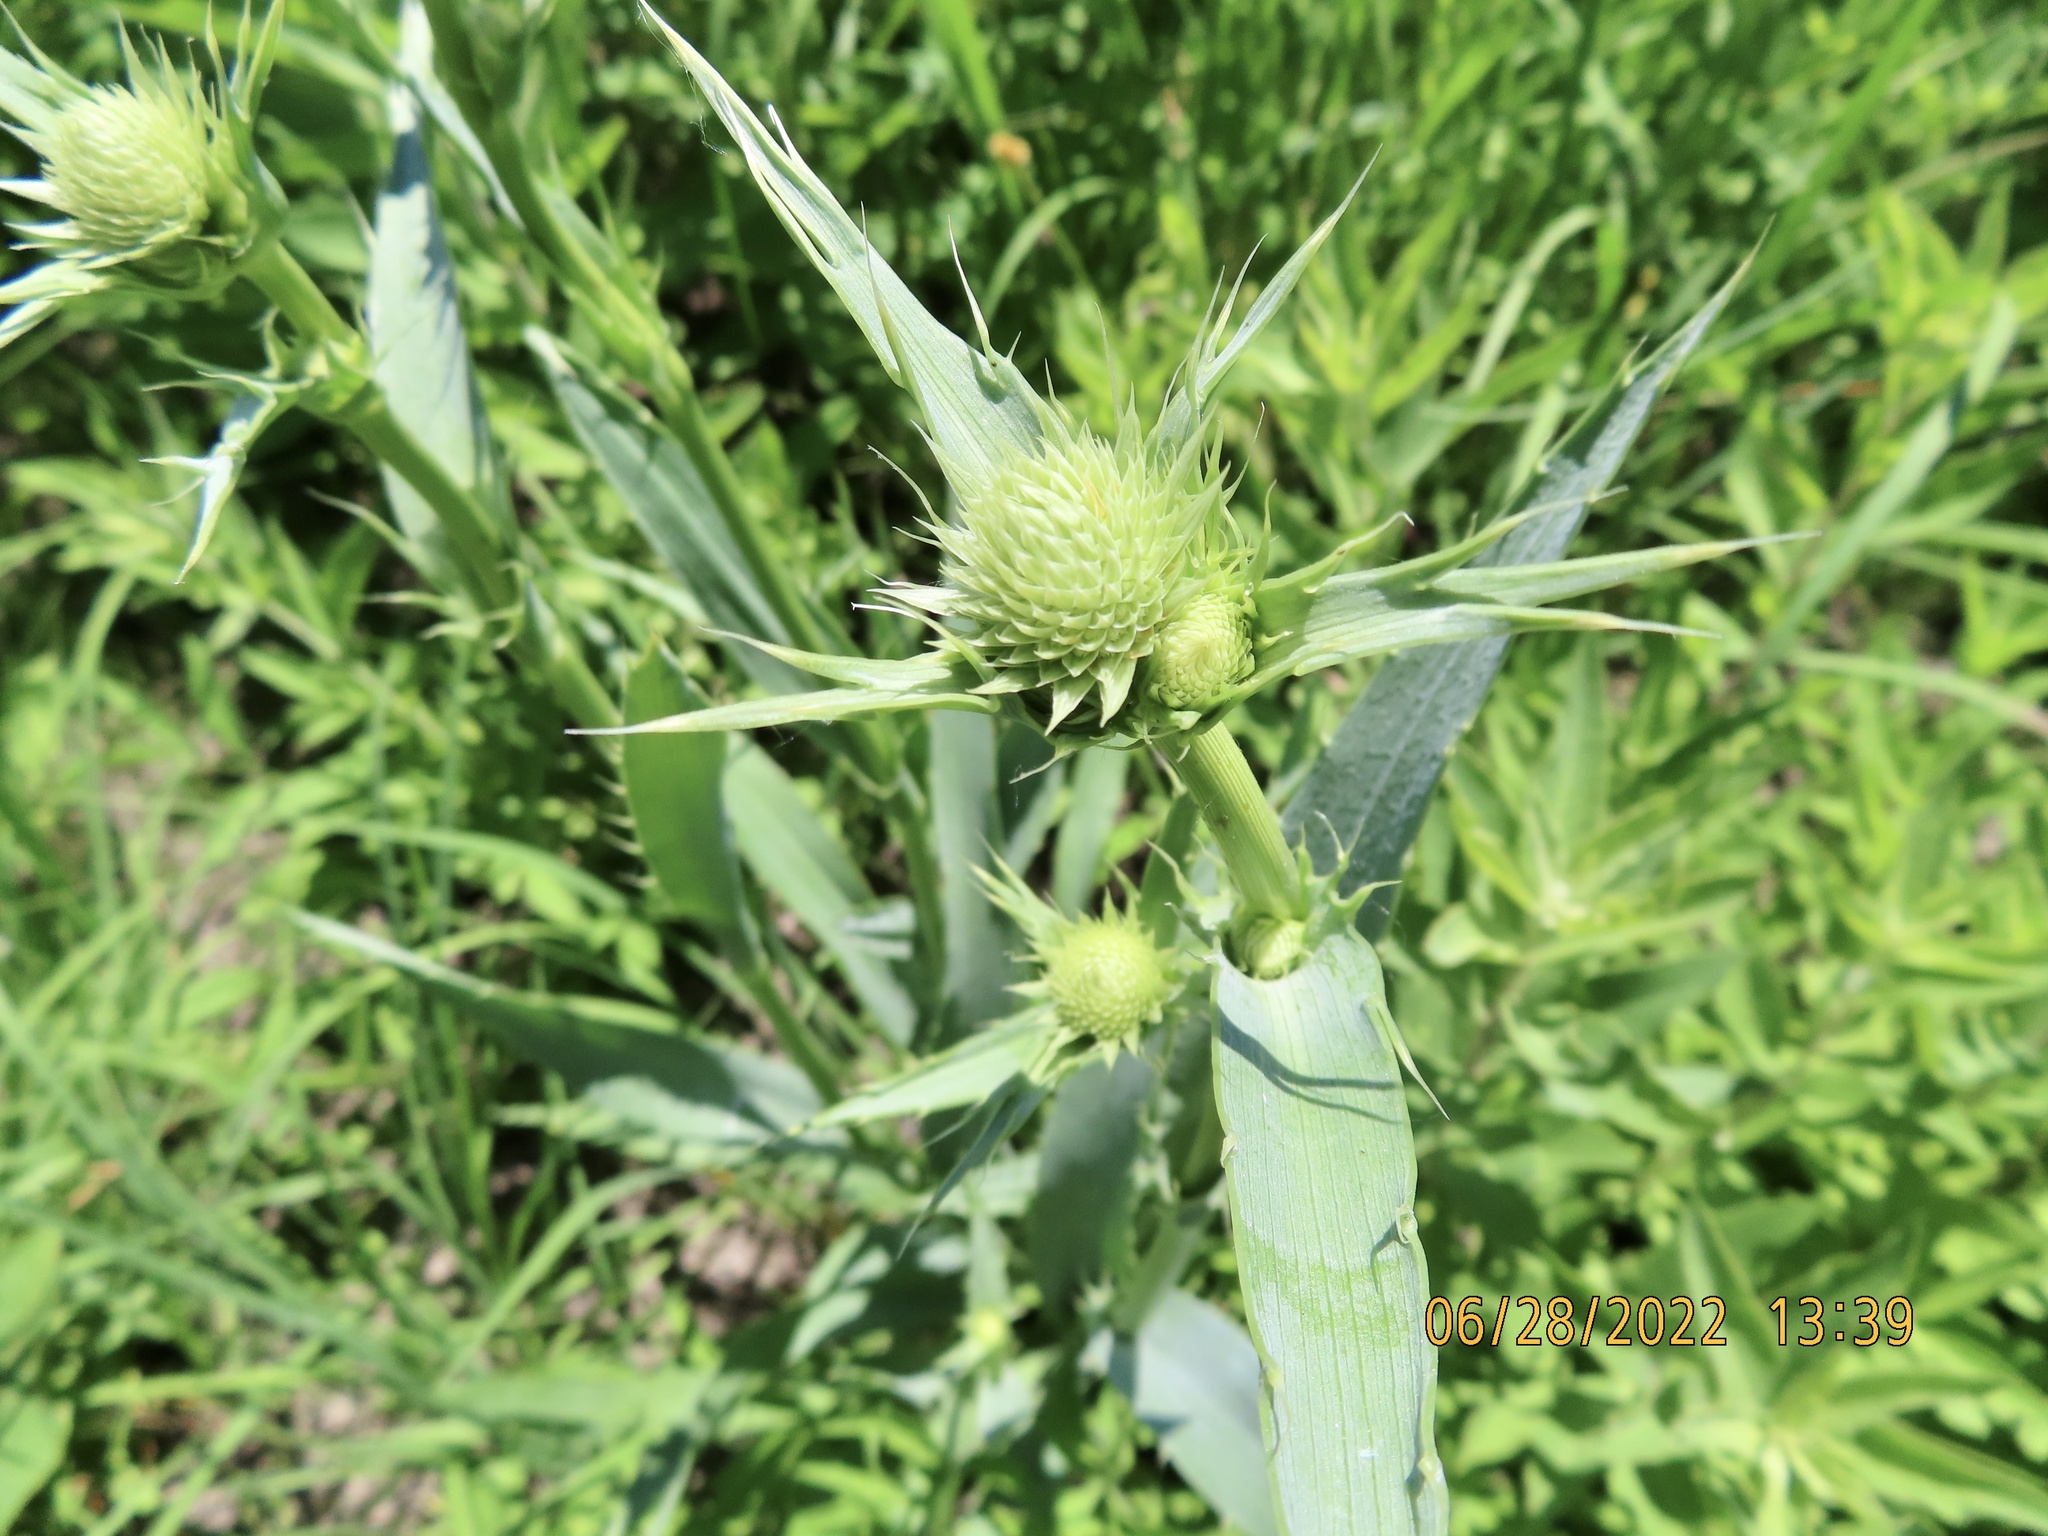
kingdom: Plantae
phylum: Tracheophyta
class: Magnoliopsida
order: Apiales
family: Apiaceae
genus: Eryngium
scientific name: Eryngium yuccifolium
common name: Button eryngo
